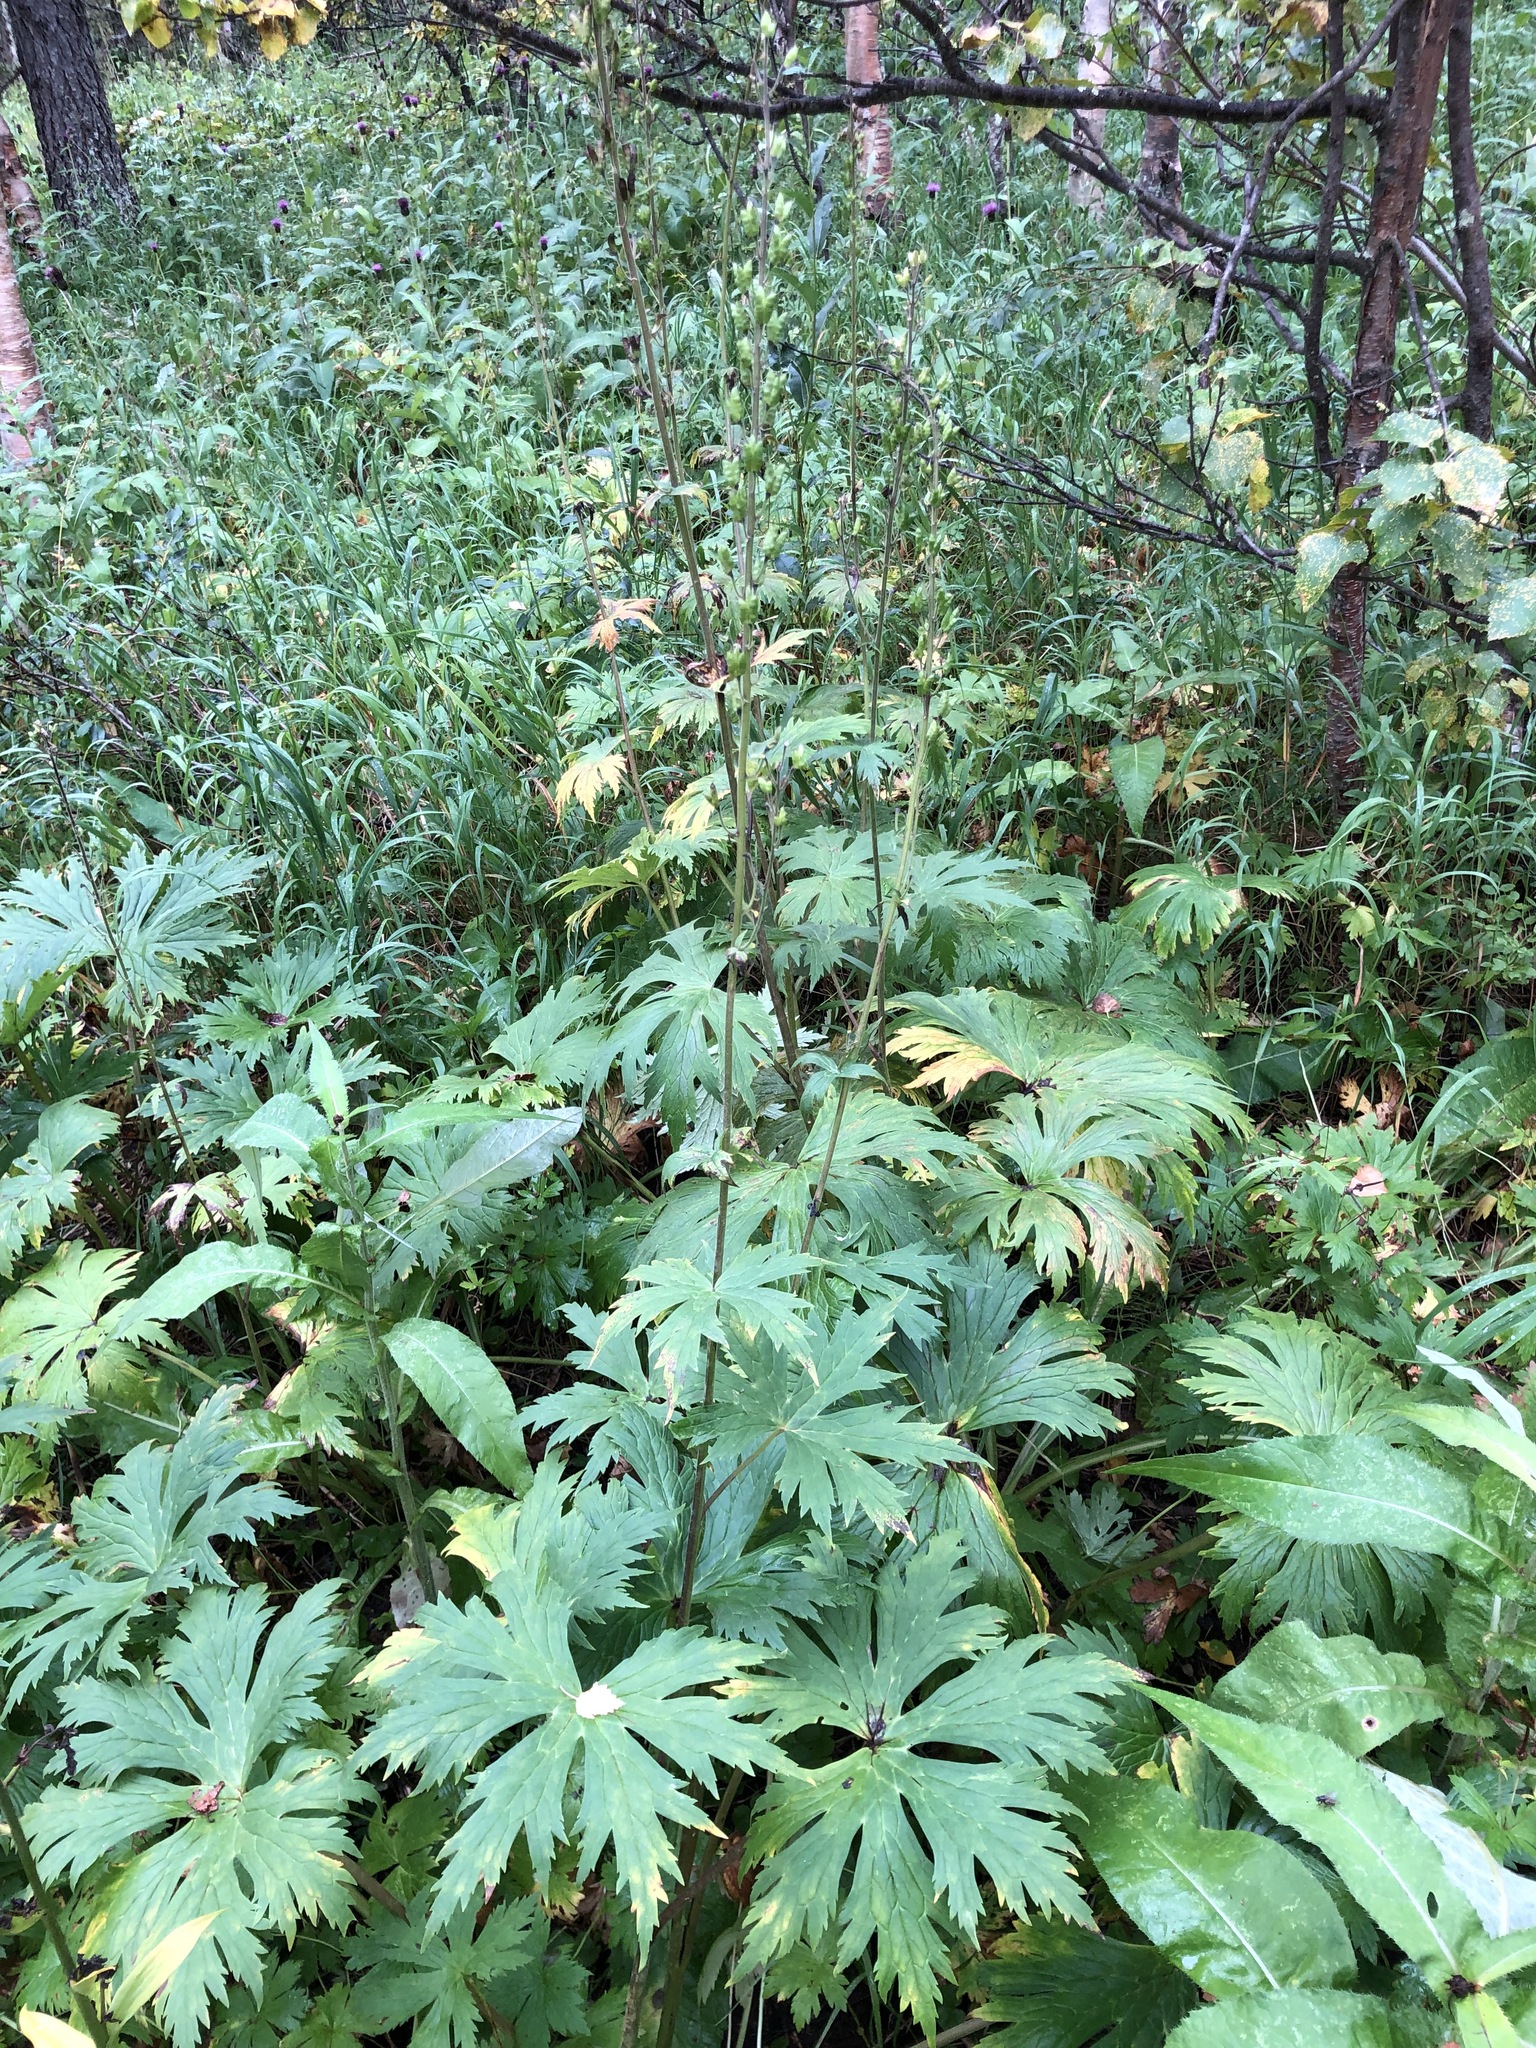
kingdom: Plantae
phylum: Tracheophyta
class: Magnoliopsida
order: Ranunculales
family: Ranunculaceae
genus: Aconitum
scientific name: Aconitum septentrionale
